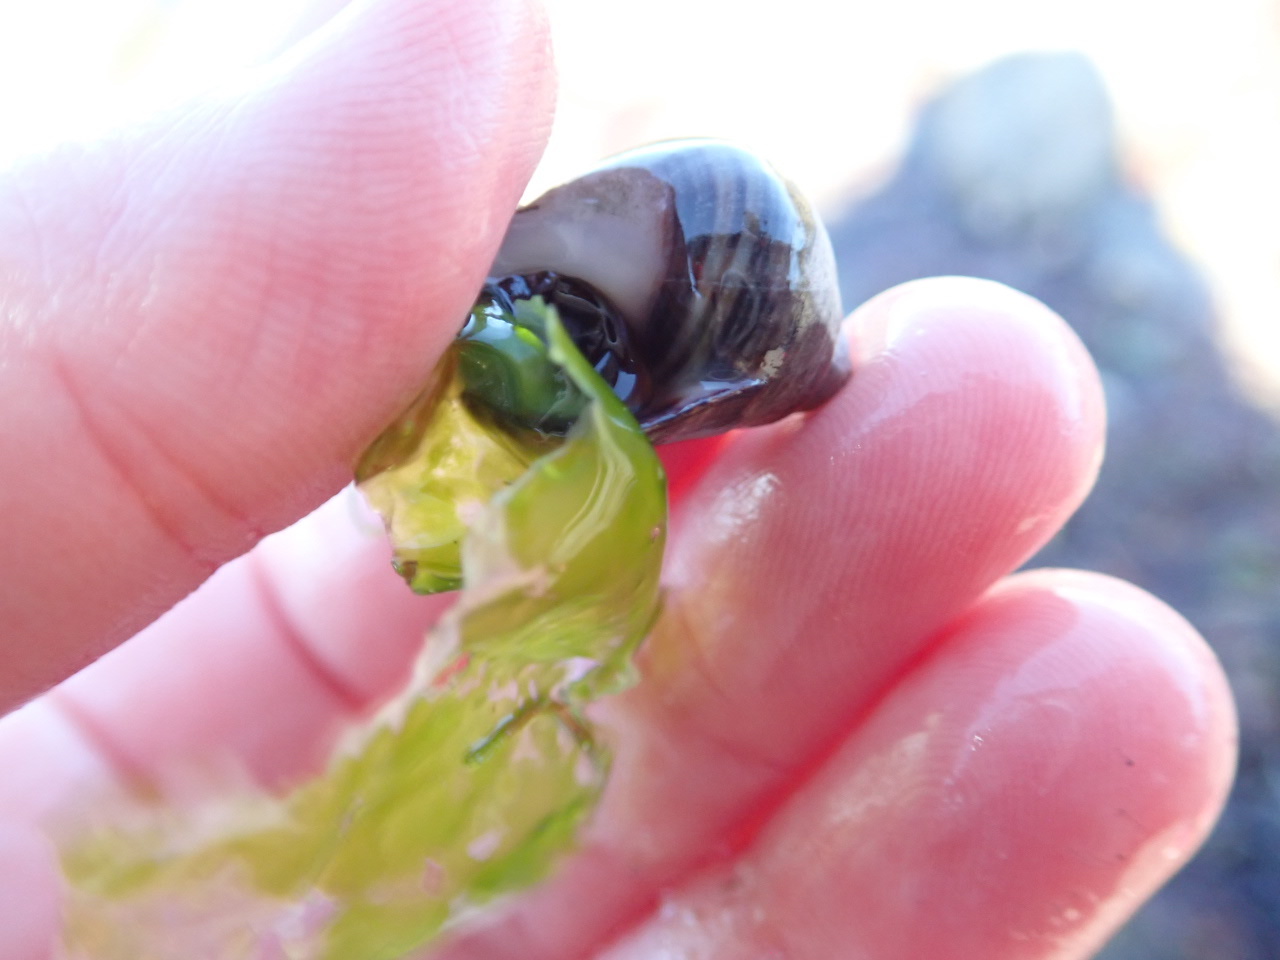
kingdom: Animalia
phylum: Mollusca
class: Gastropoda
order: Littorinimorpha
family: Littorinidae
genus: Littorina
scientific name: Littorina littorea
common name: Common periwinkle
